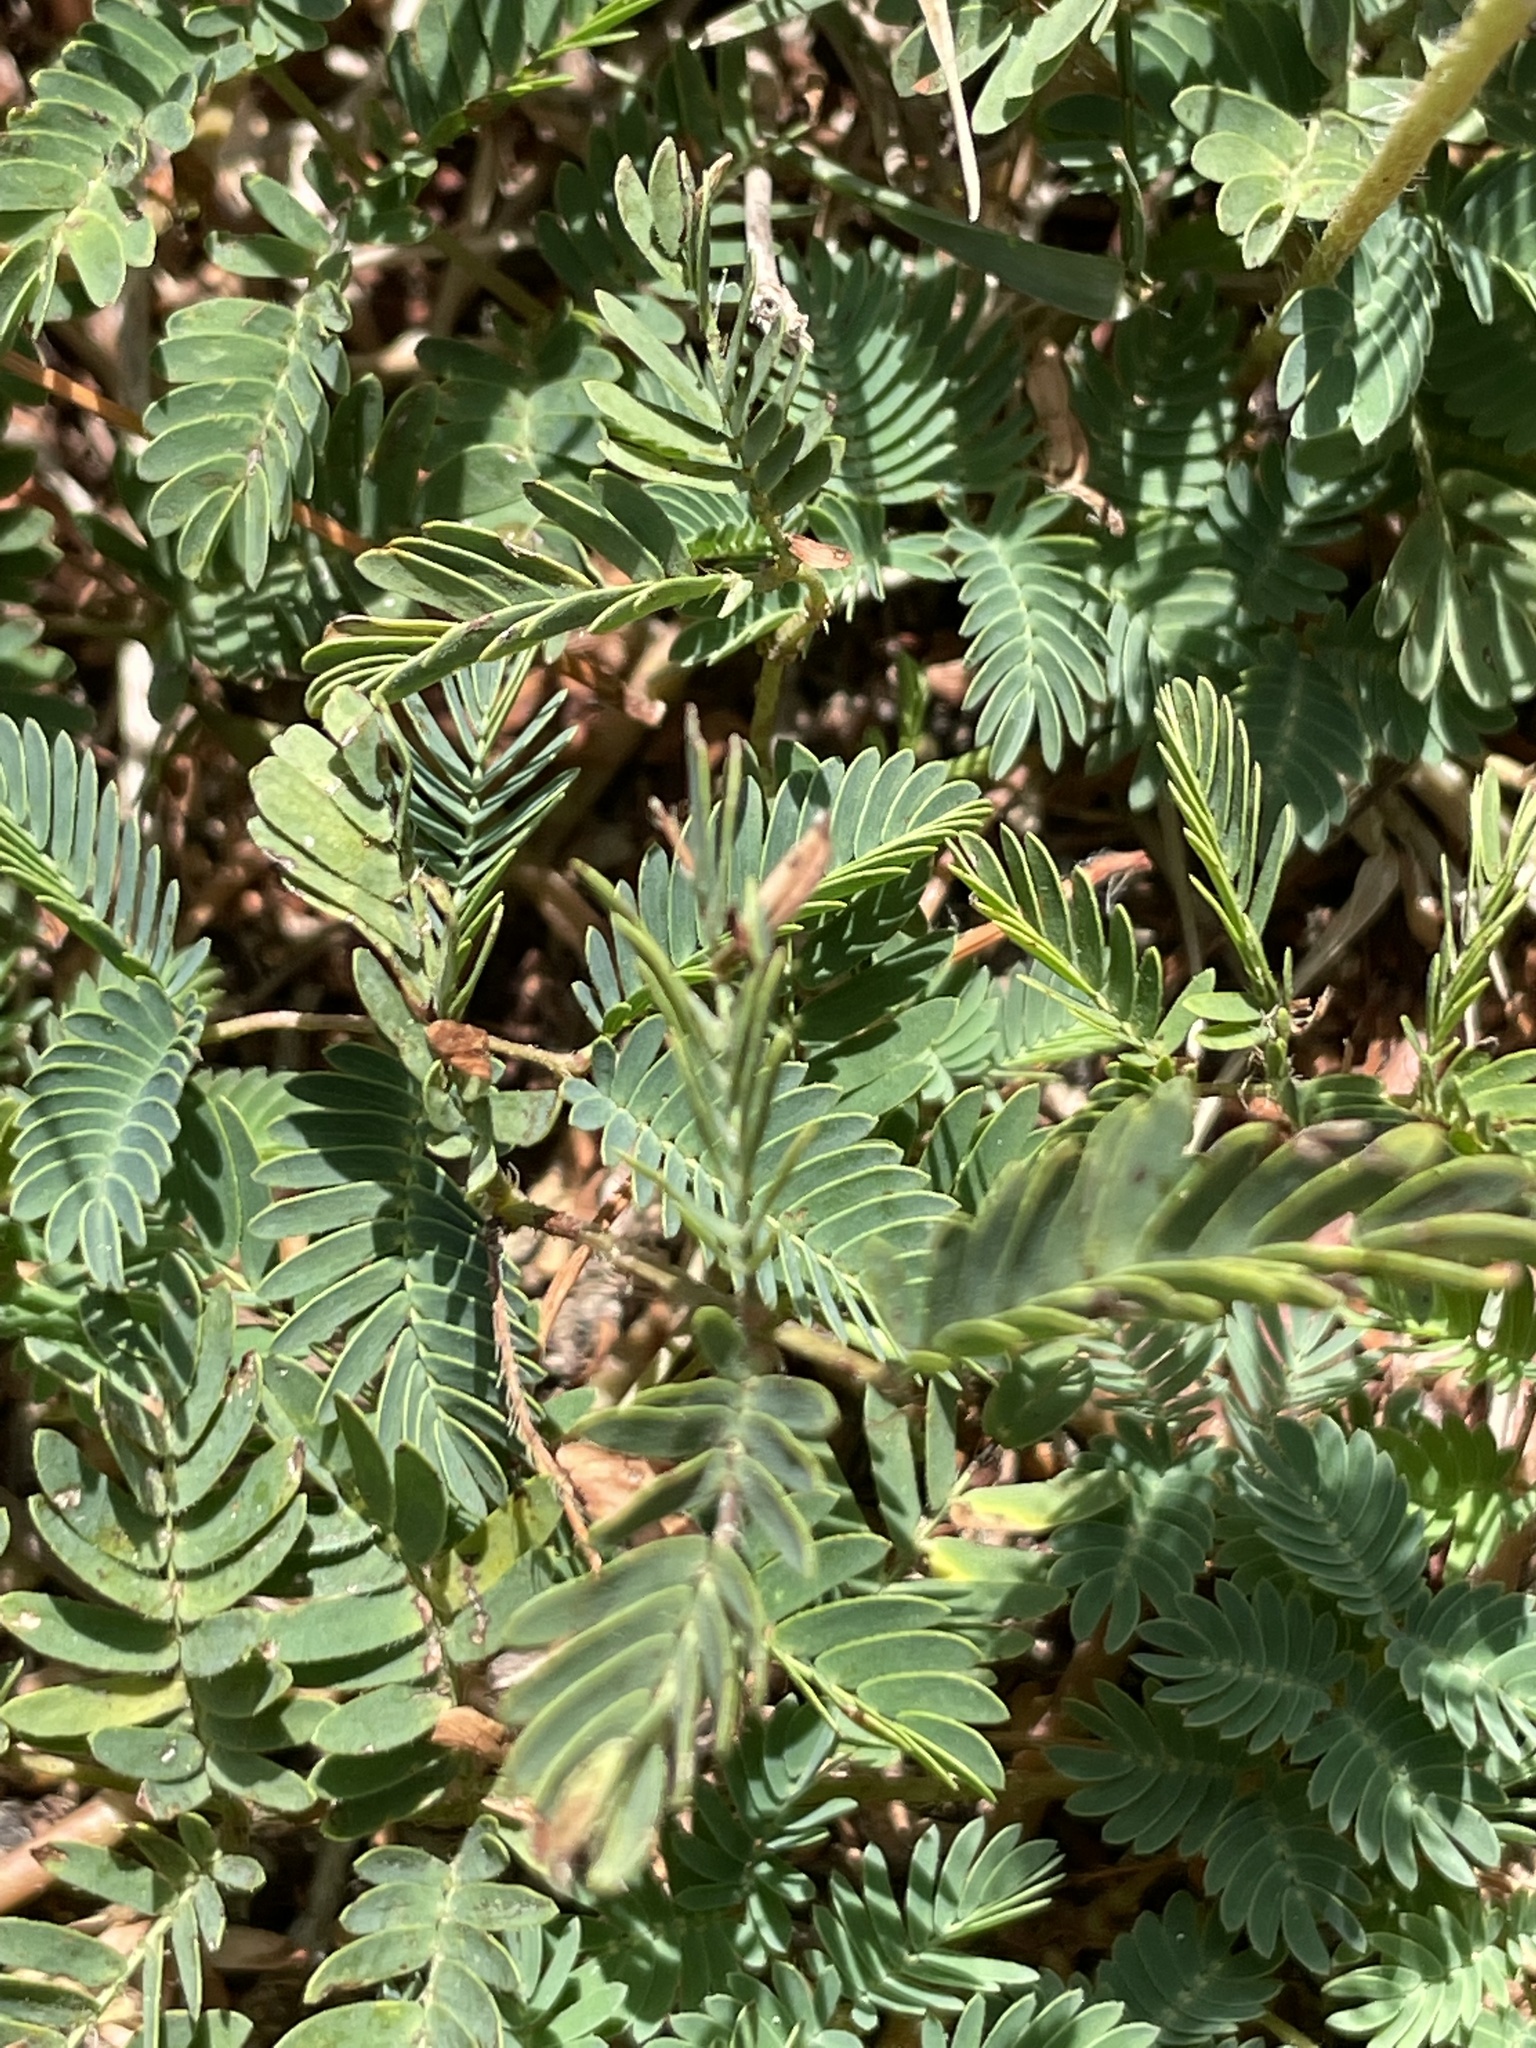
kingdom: Plantae
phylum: Tracheophyta
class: Magnoliopsida
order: Fabales
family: Fabaceae
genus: Mimosa
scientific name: Mimosa strigillosa
